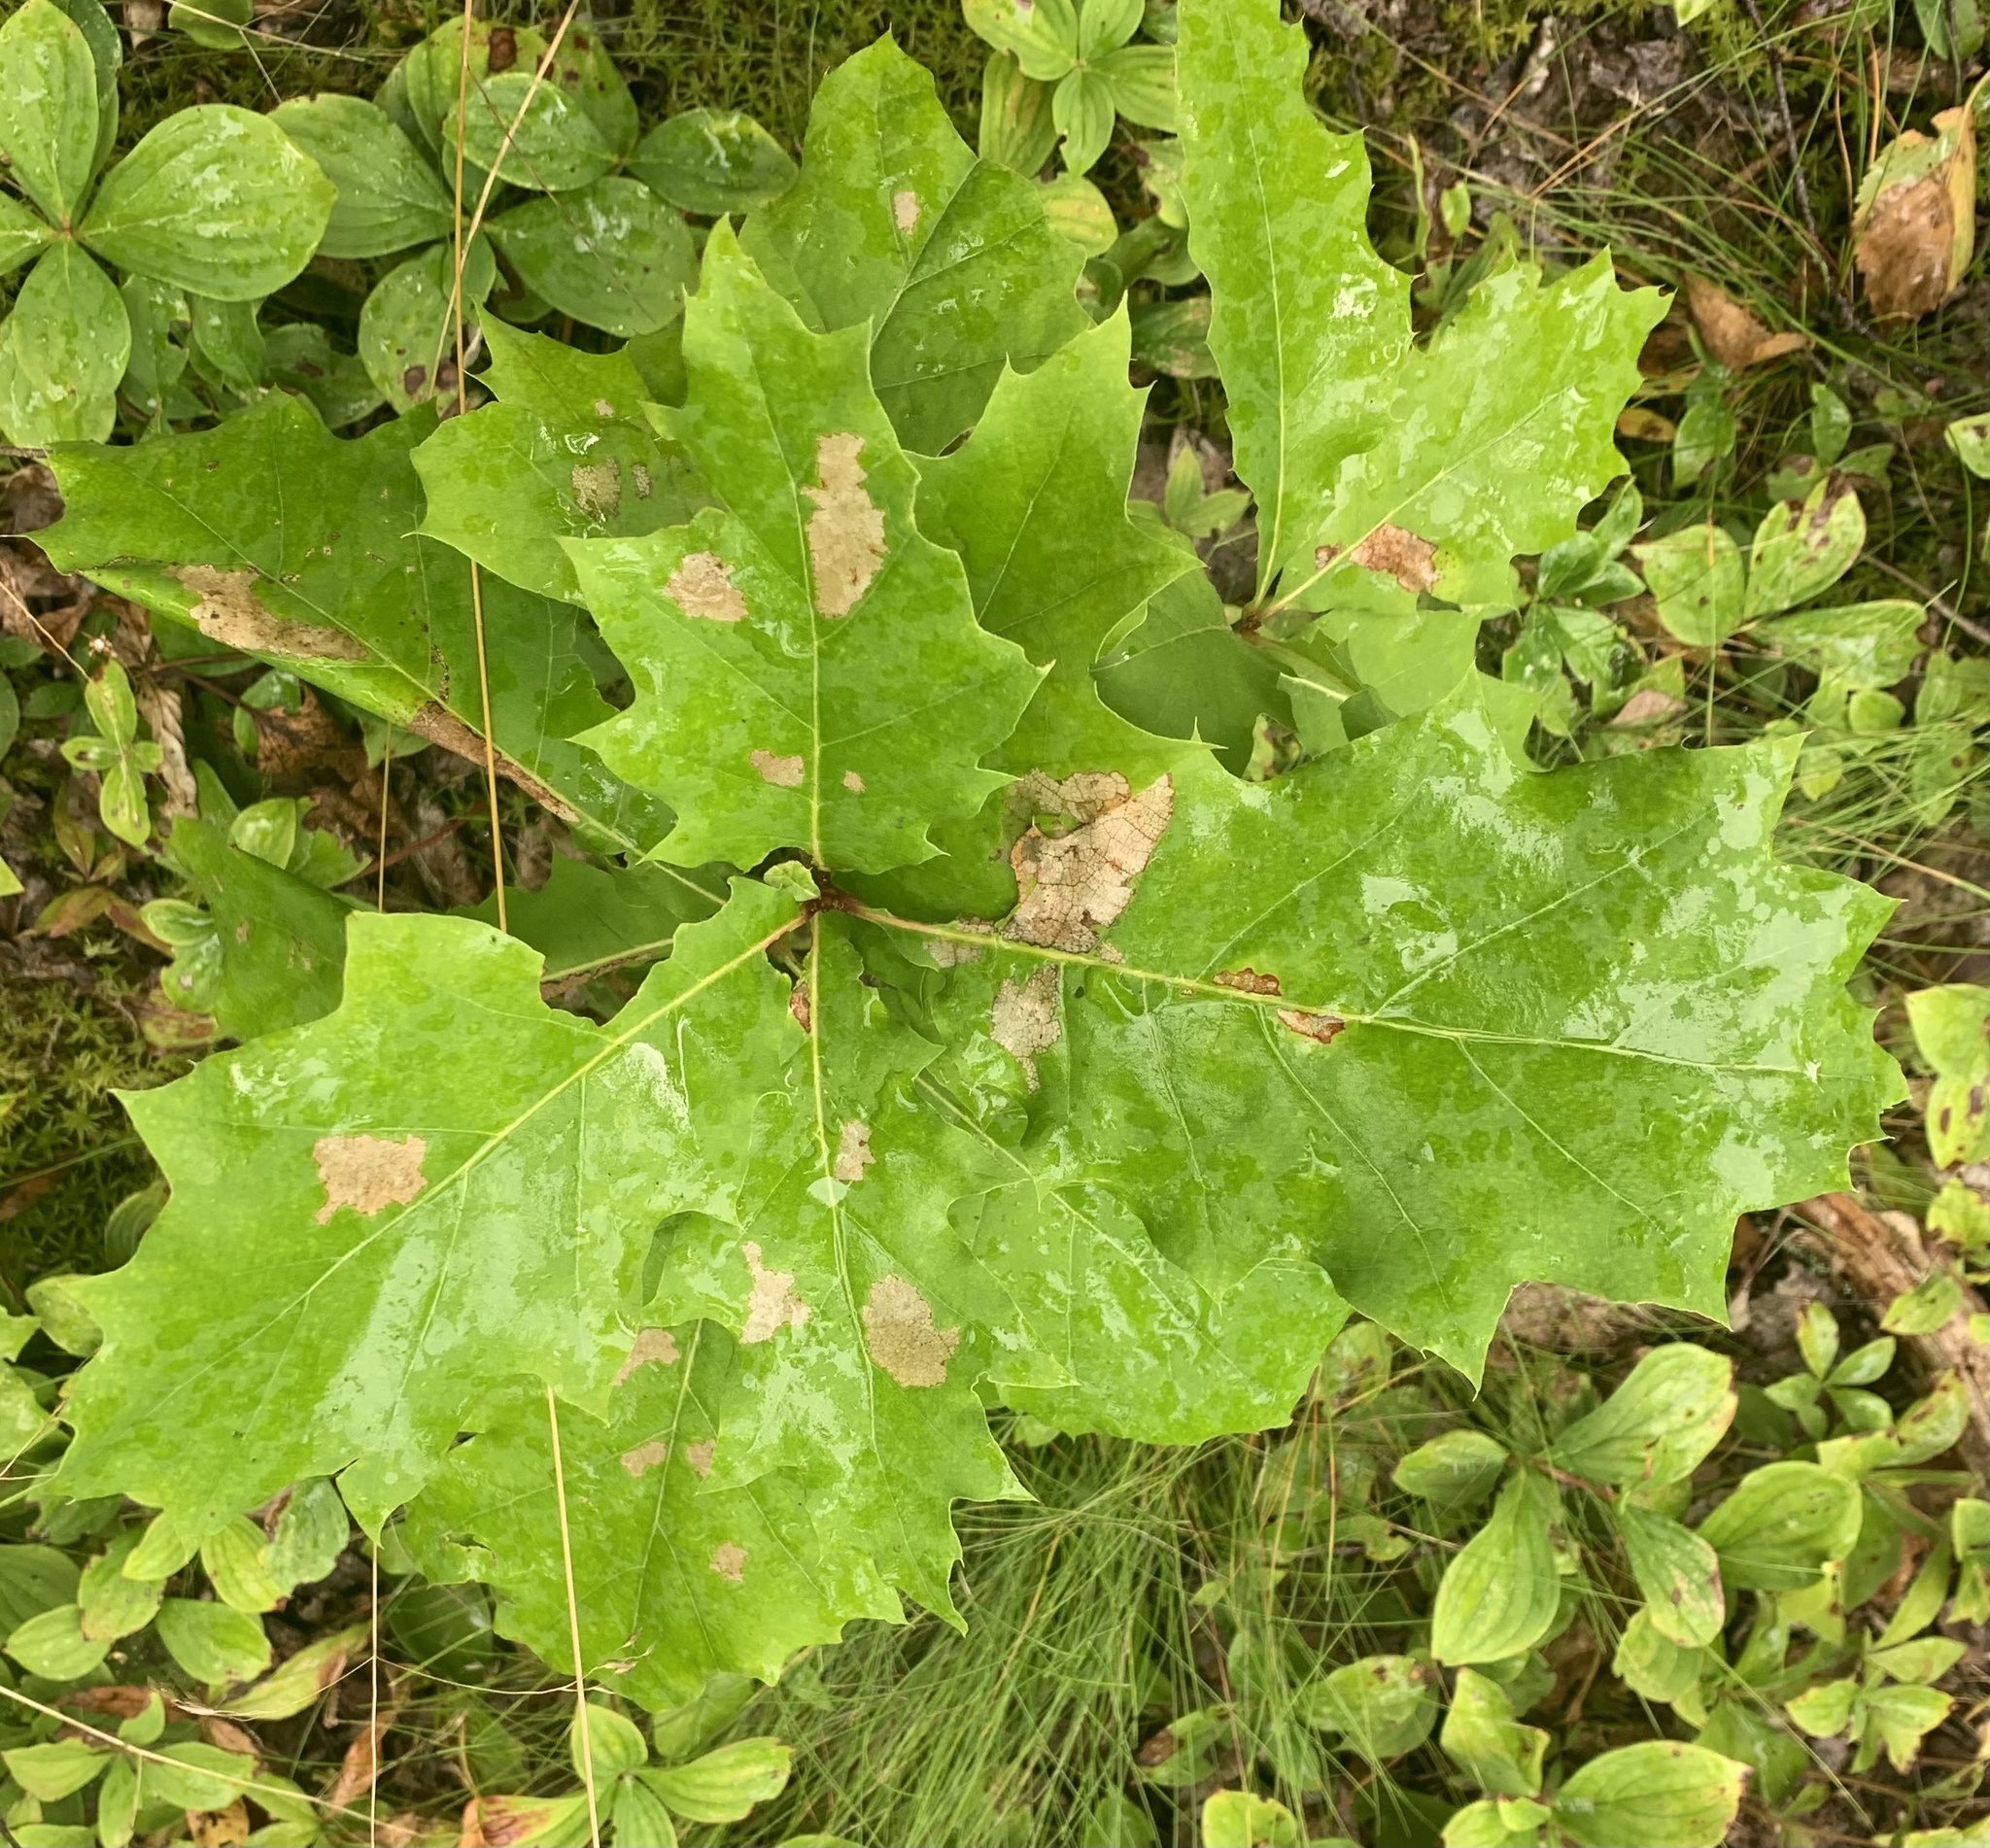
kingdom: Plantae
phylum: Tracheophyta
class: Magnoliopsida
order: Fagales
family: Fagaceae
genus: Quercus
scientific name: Quercus rubra
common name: Red oak
